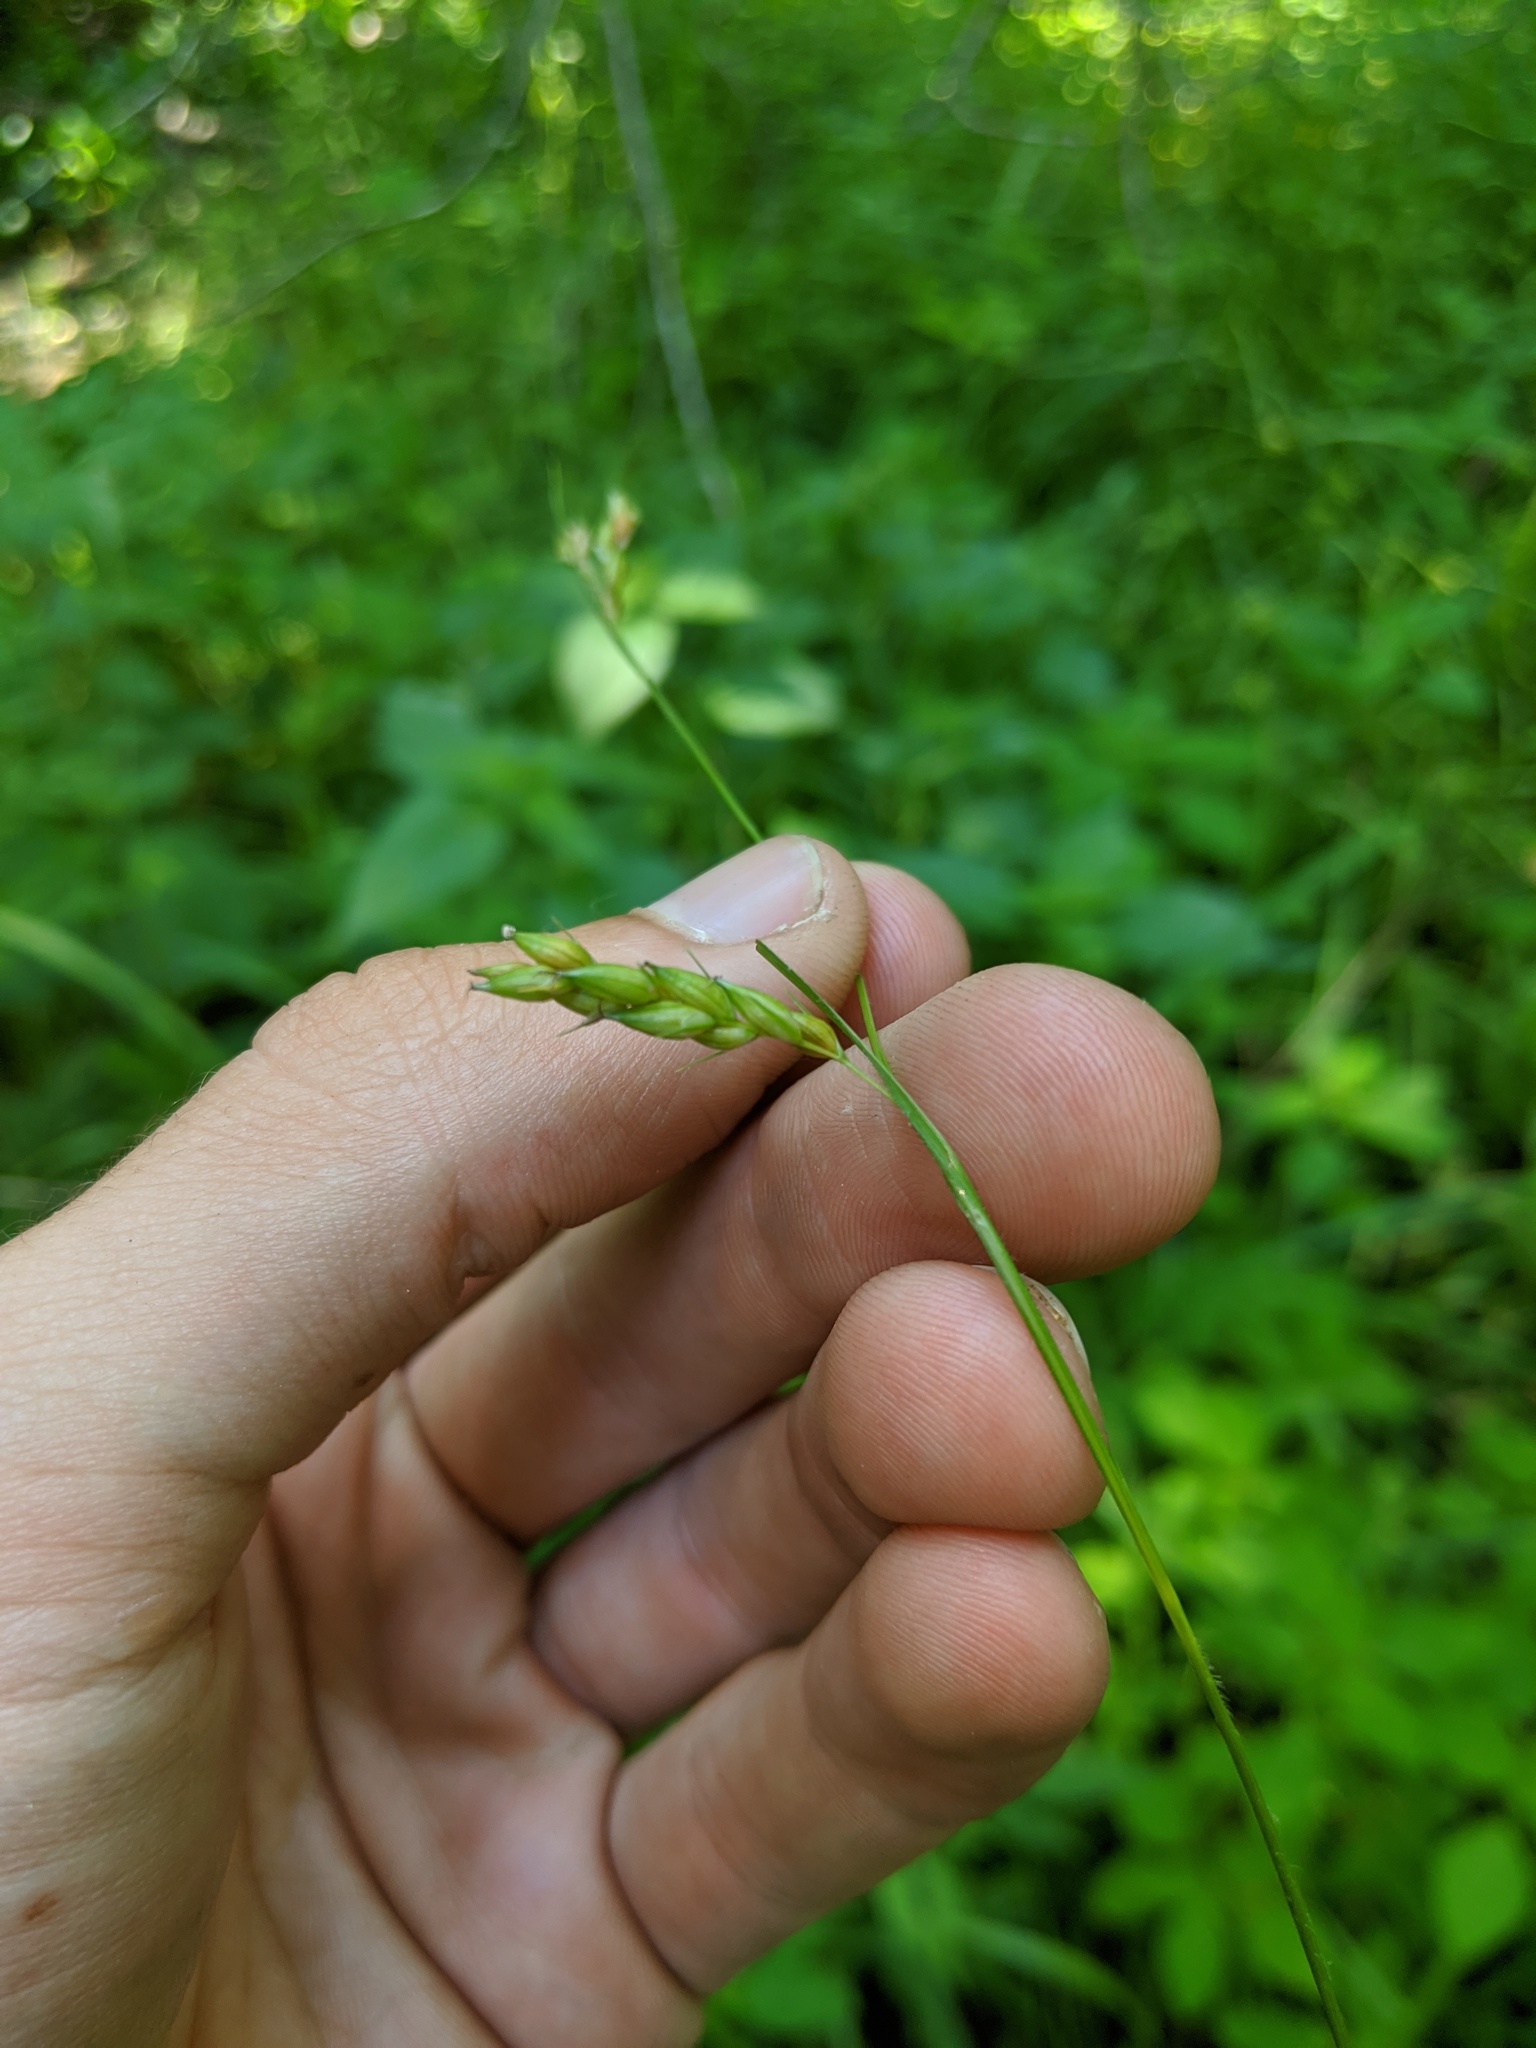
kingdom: Plantae
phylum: Tracheophyta
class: Liliopsida
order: Poales
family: Cyperaceae
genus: Carex
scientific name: Carex davisii
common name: Davis' sedge
